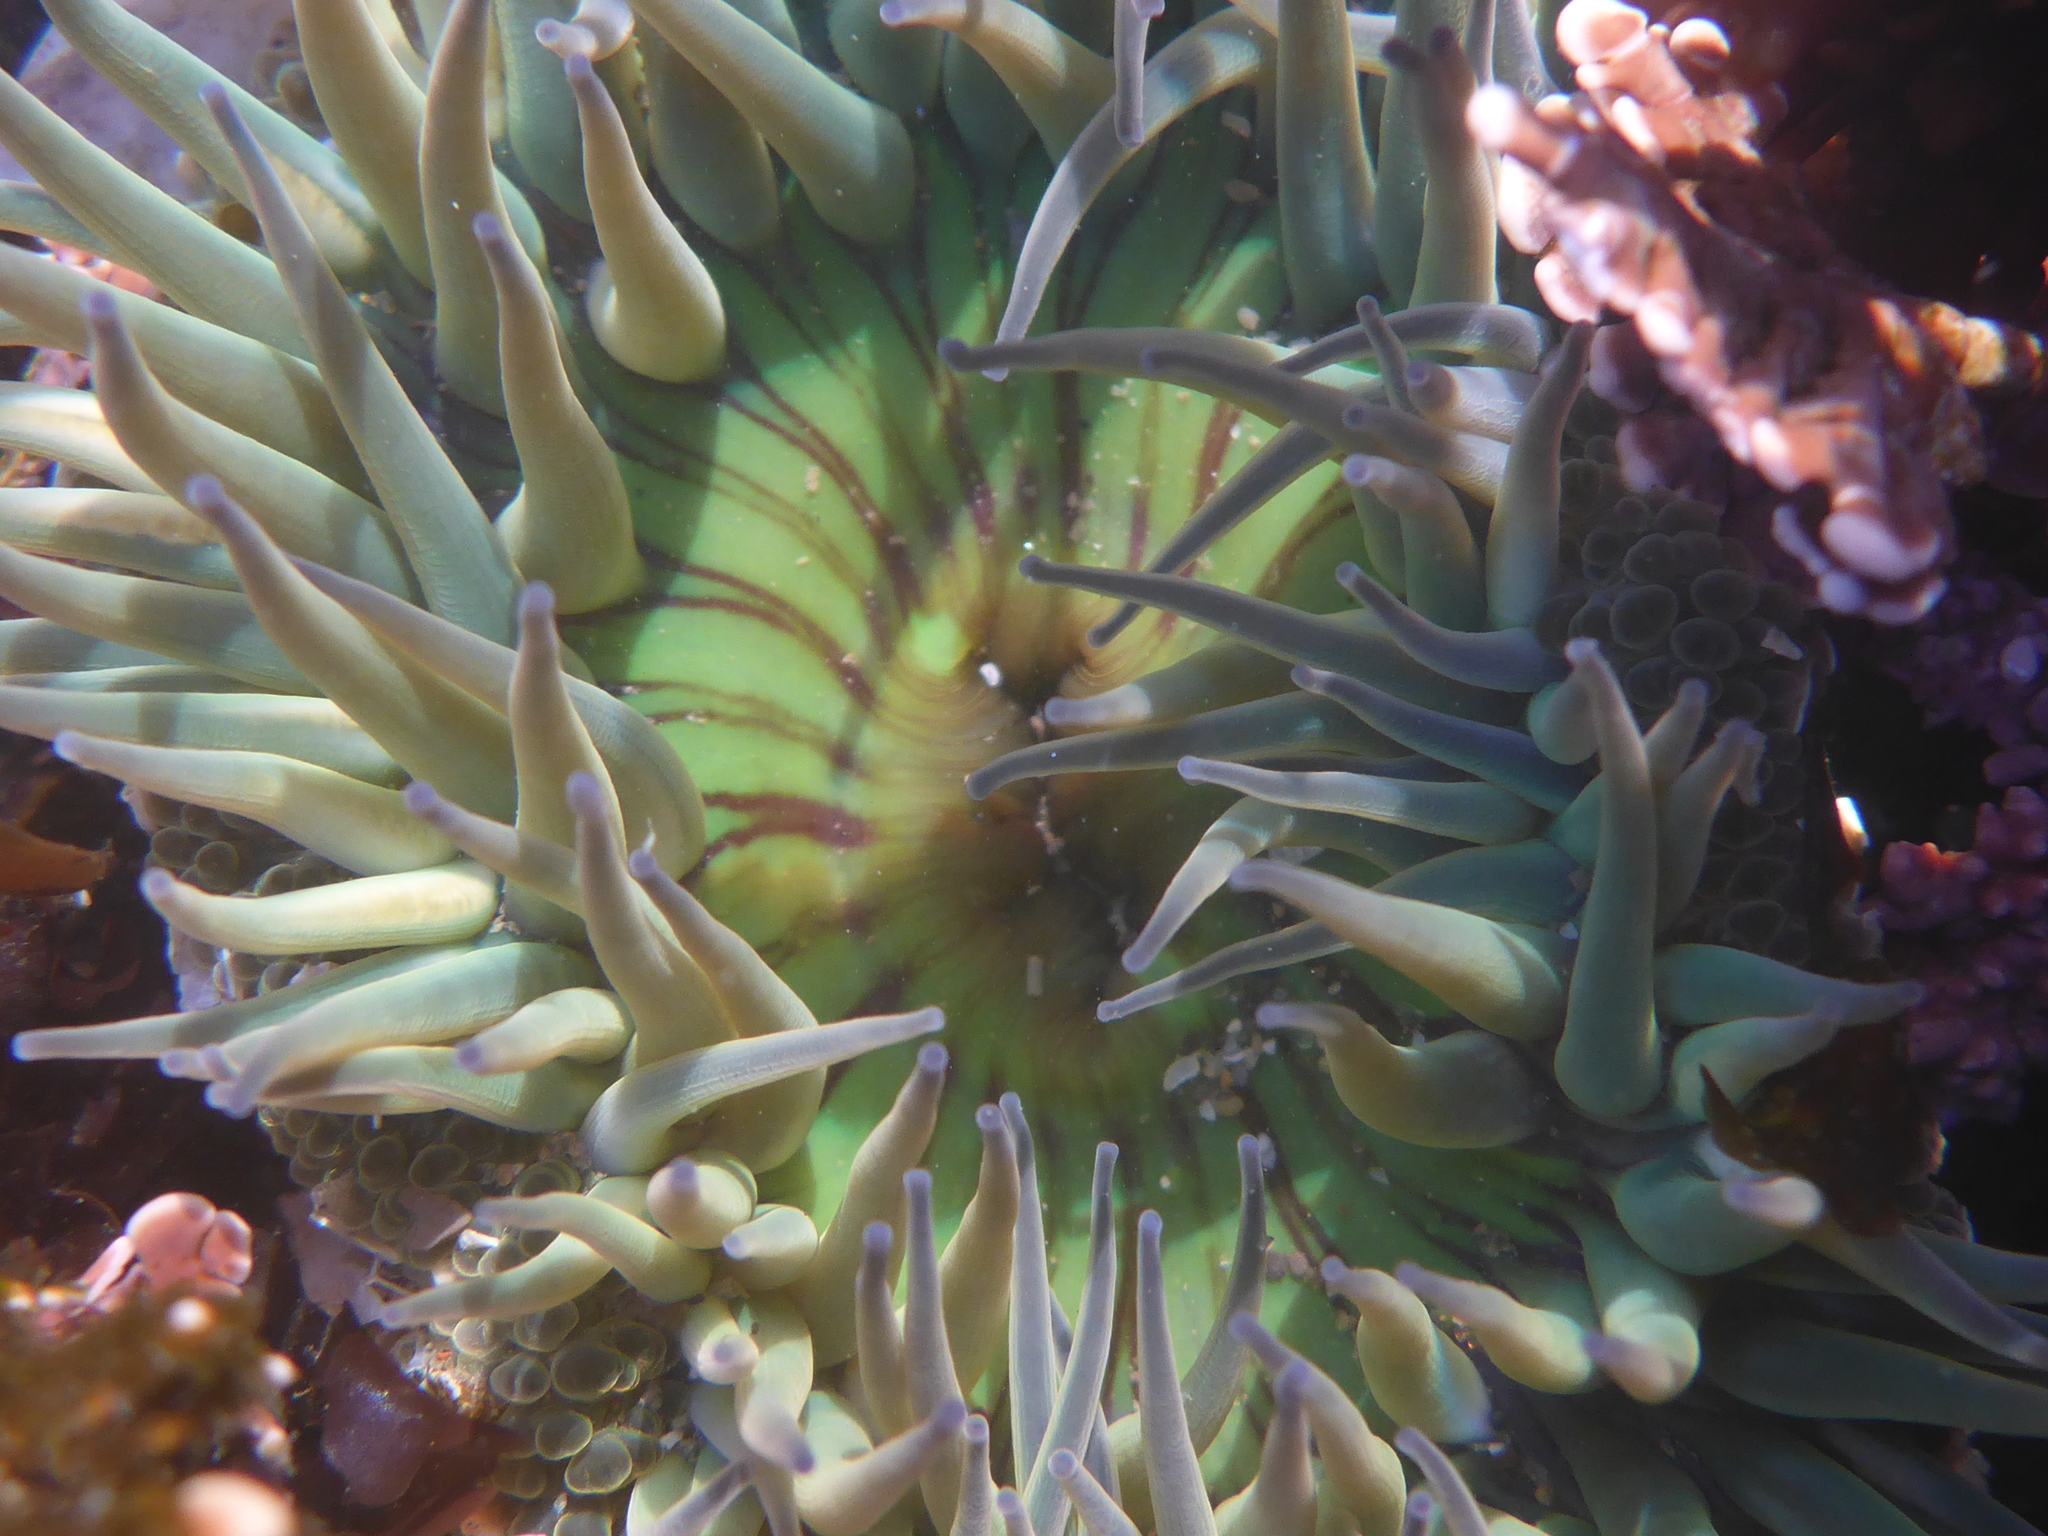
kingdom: Animalia
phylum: Cnidaria
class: Anthozoa
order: Actiniaria
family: Actiniidae
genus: Anthopleura
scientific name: Anthopleura sola
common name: Sun anemone
